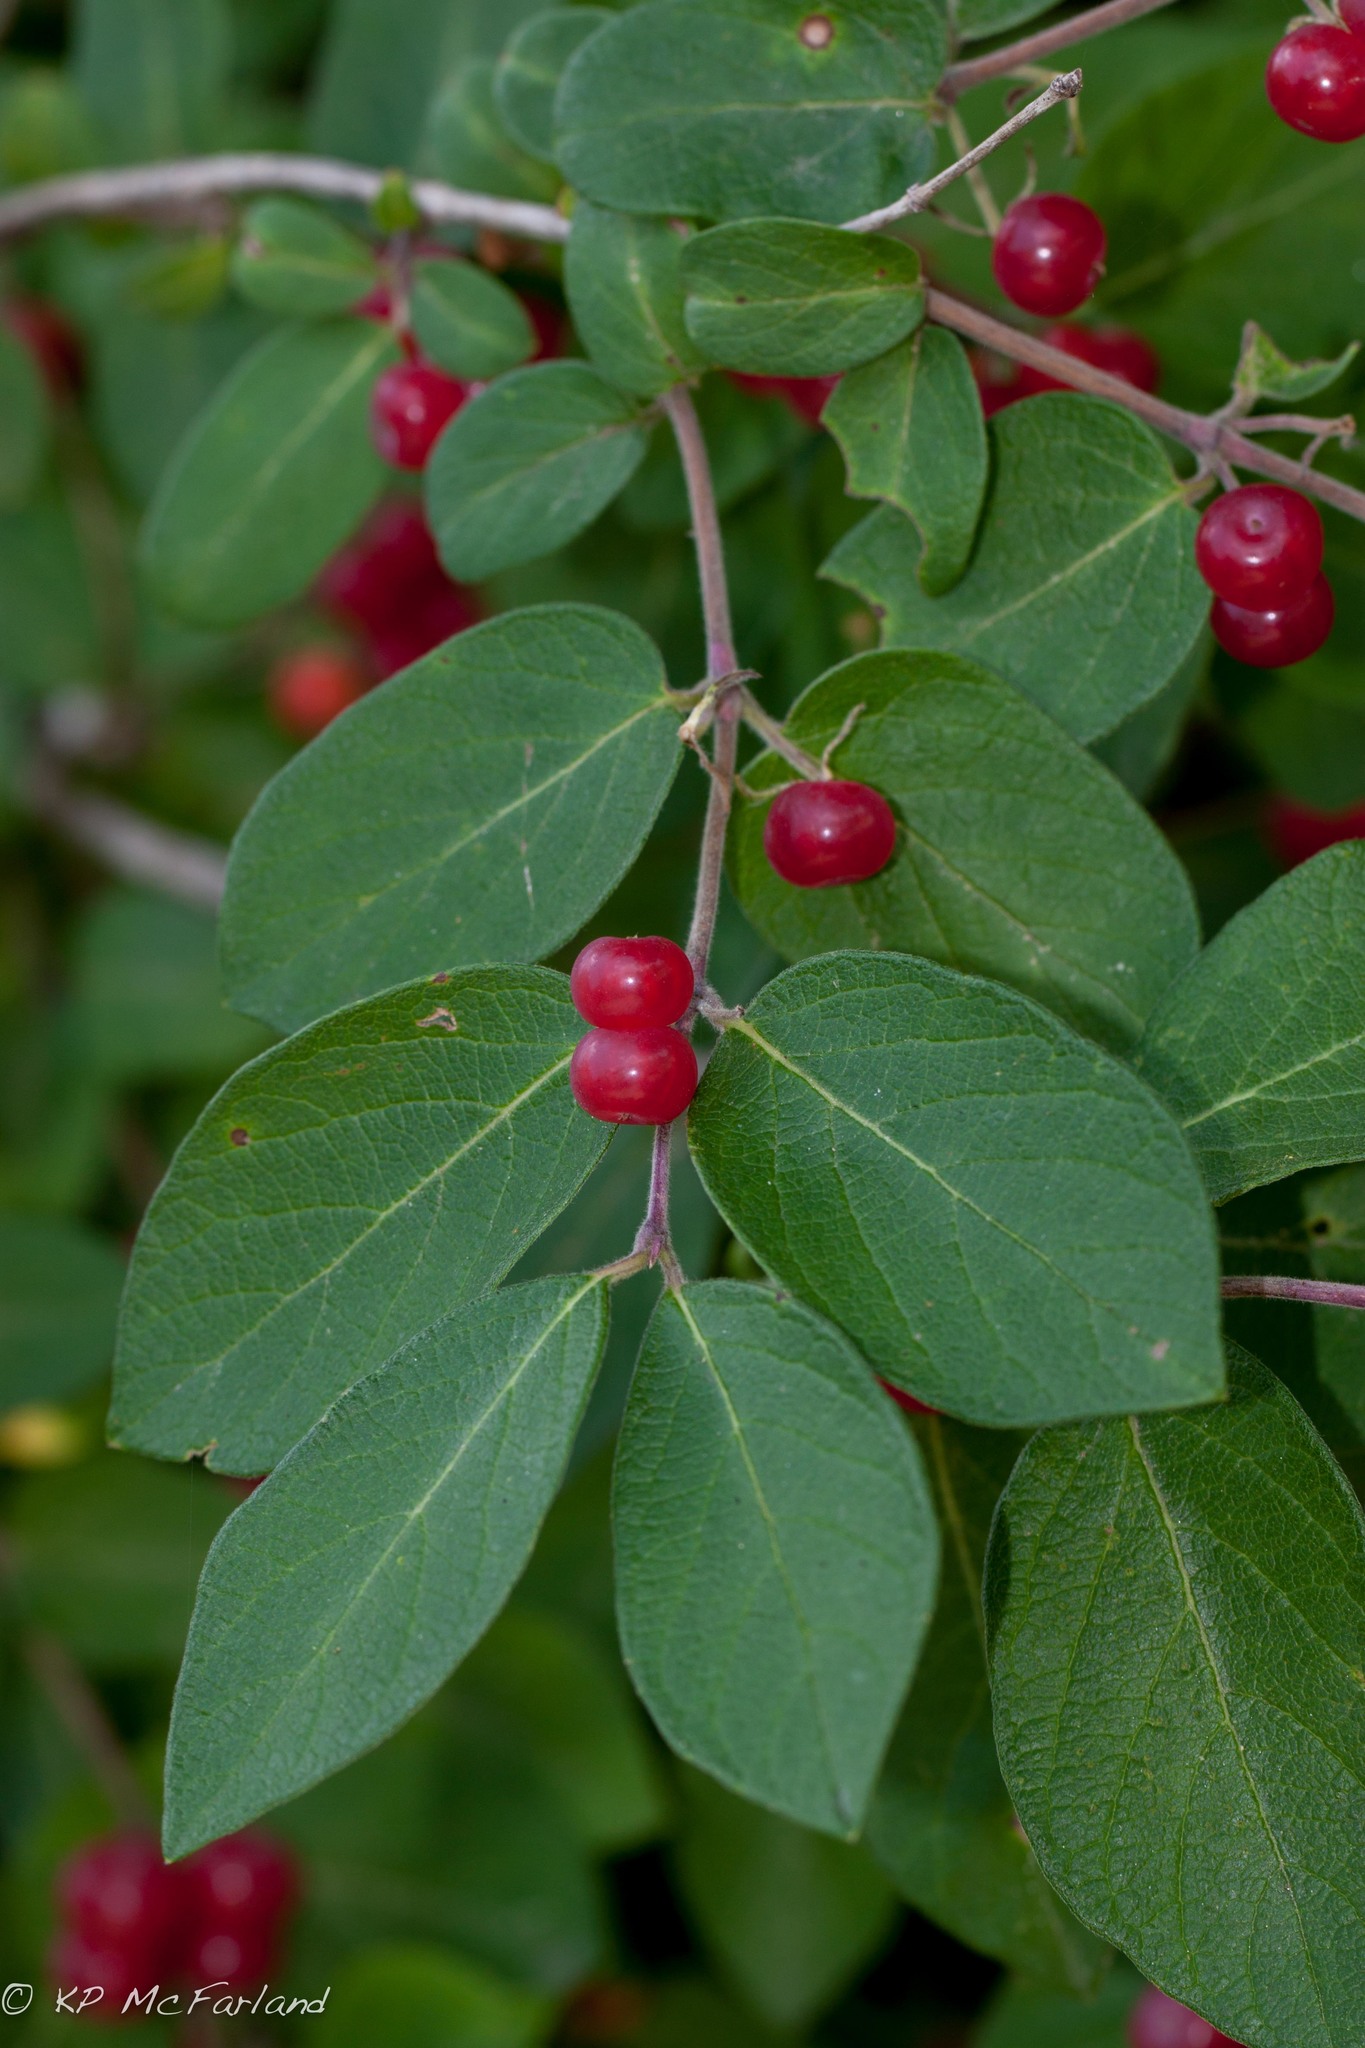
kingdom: Plantae
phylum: Tracheophyta
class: Magnoliopsida
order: Dipsacales
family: Caprifoliaceae
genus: Lonicera
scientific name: Lonicera morrowii
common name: Morrow's honeysuckle
